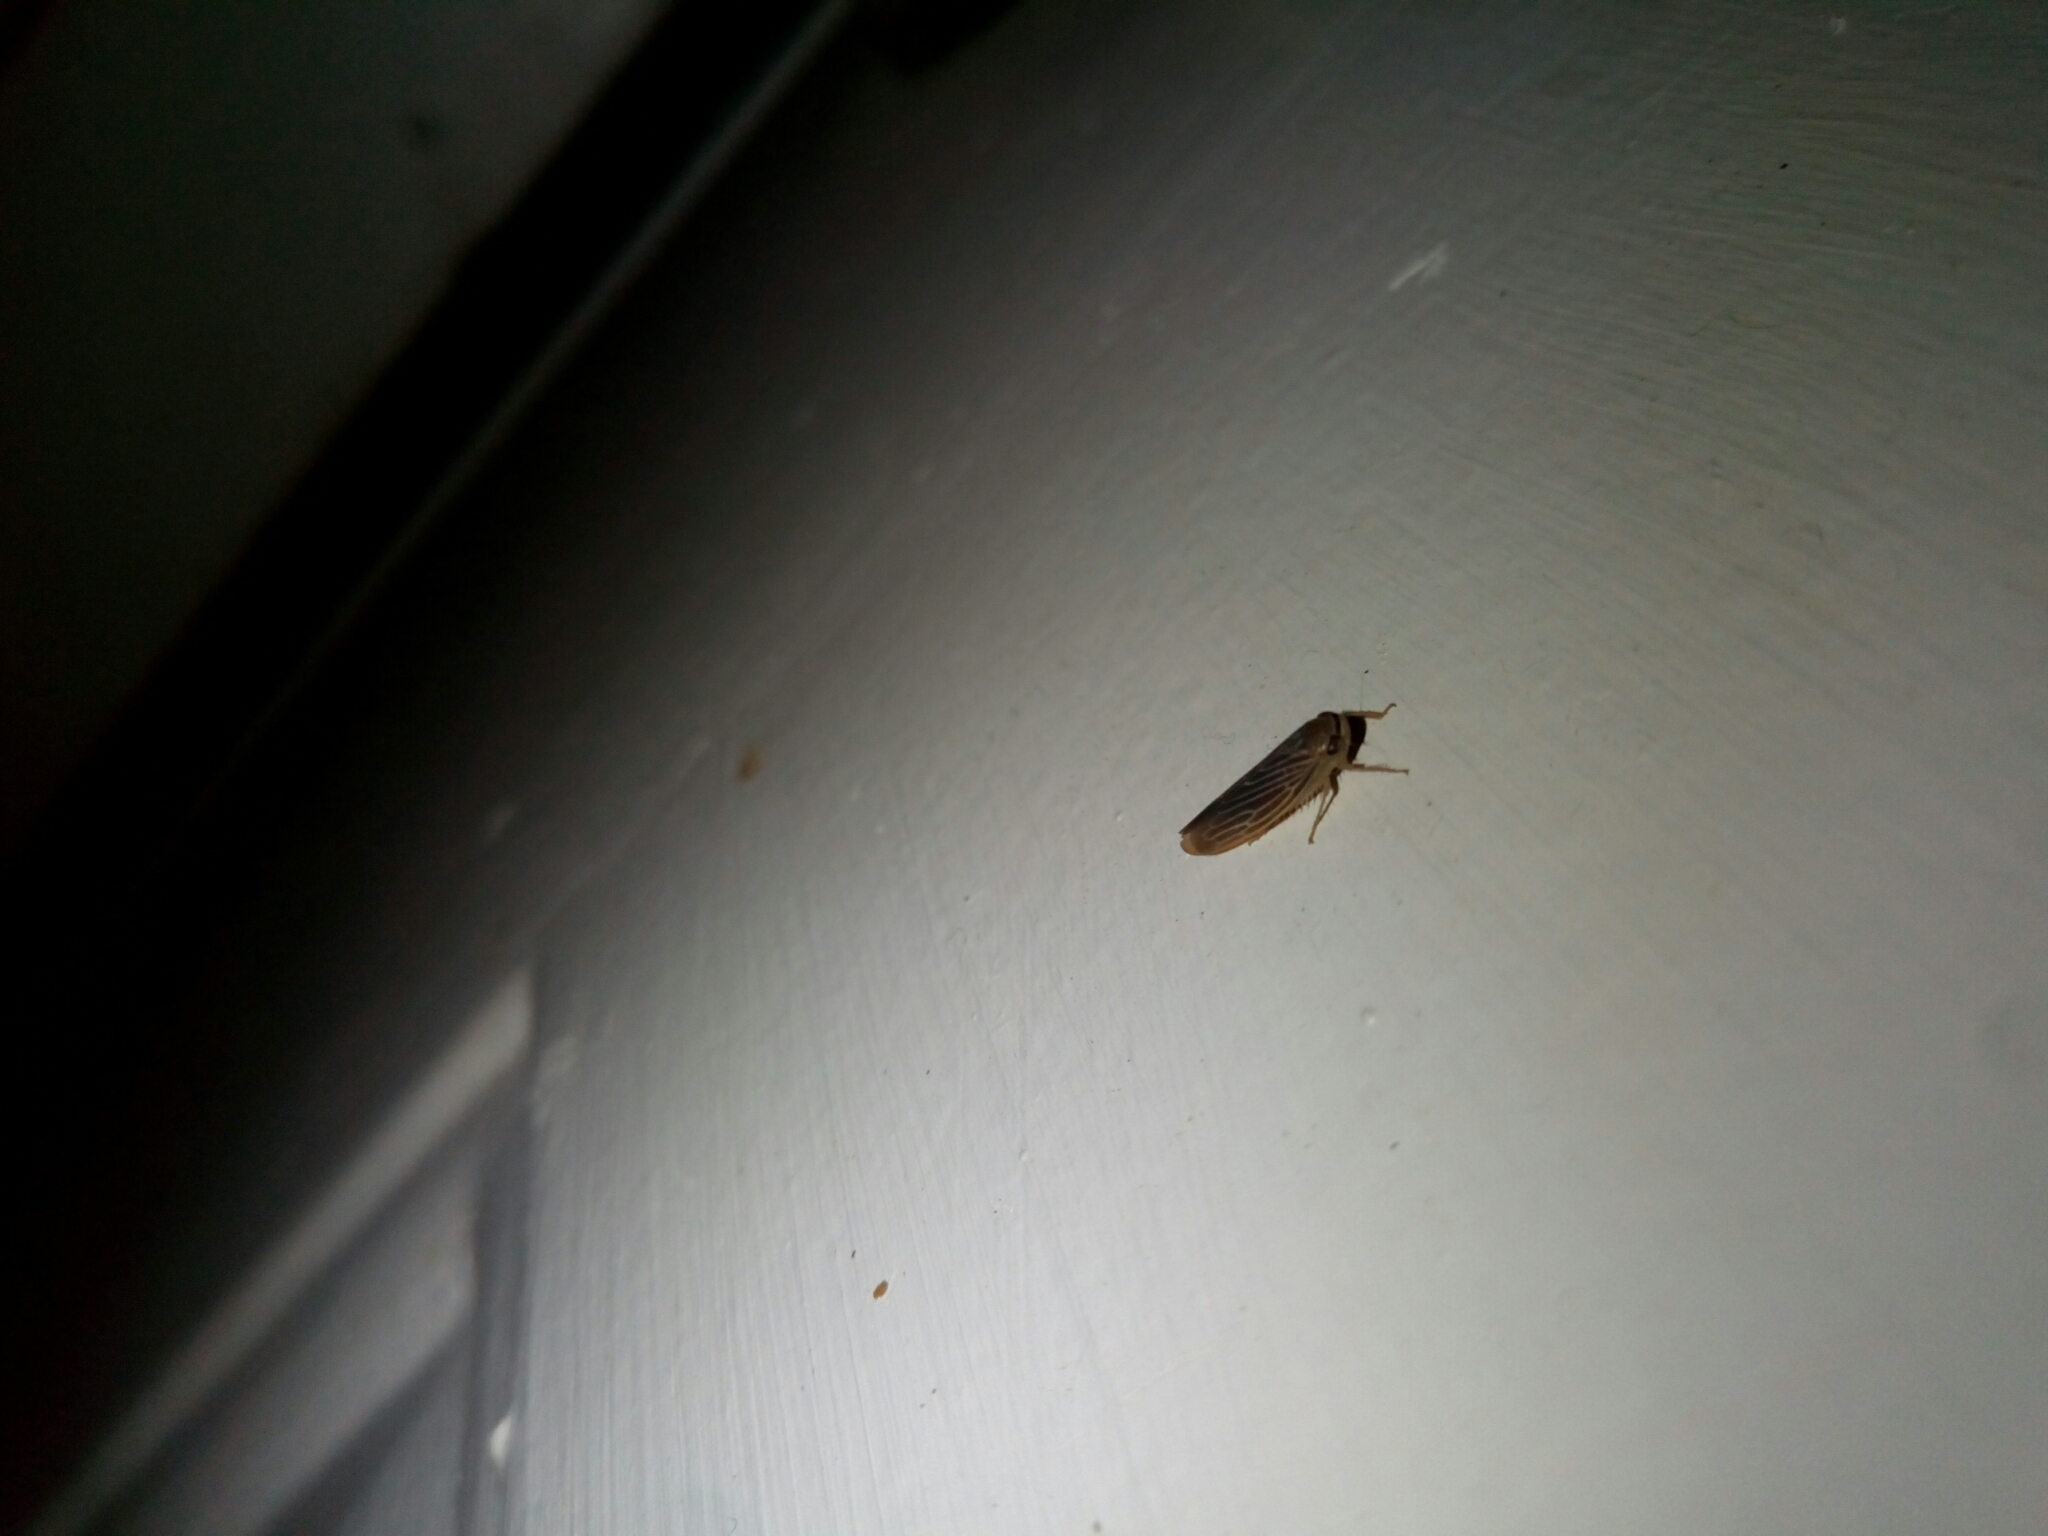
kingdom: Animalia
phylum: Arthropoda
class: Insecta
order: Hemiptera
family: Cicadellidae
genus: Chlorotettix
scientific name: Chlorotettix necopinus
